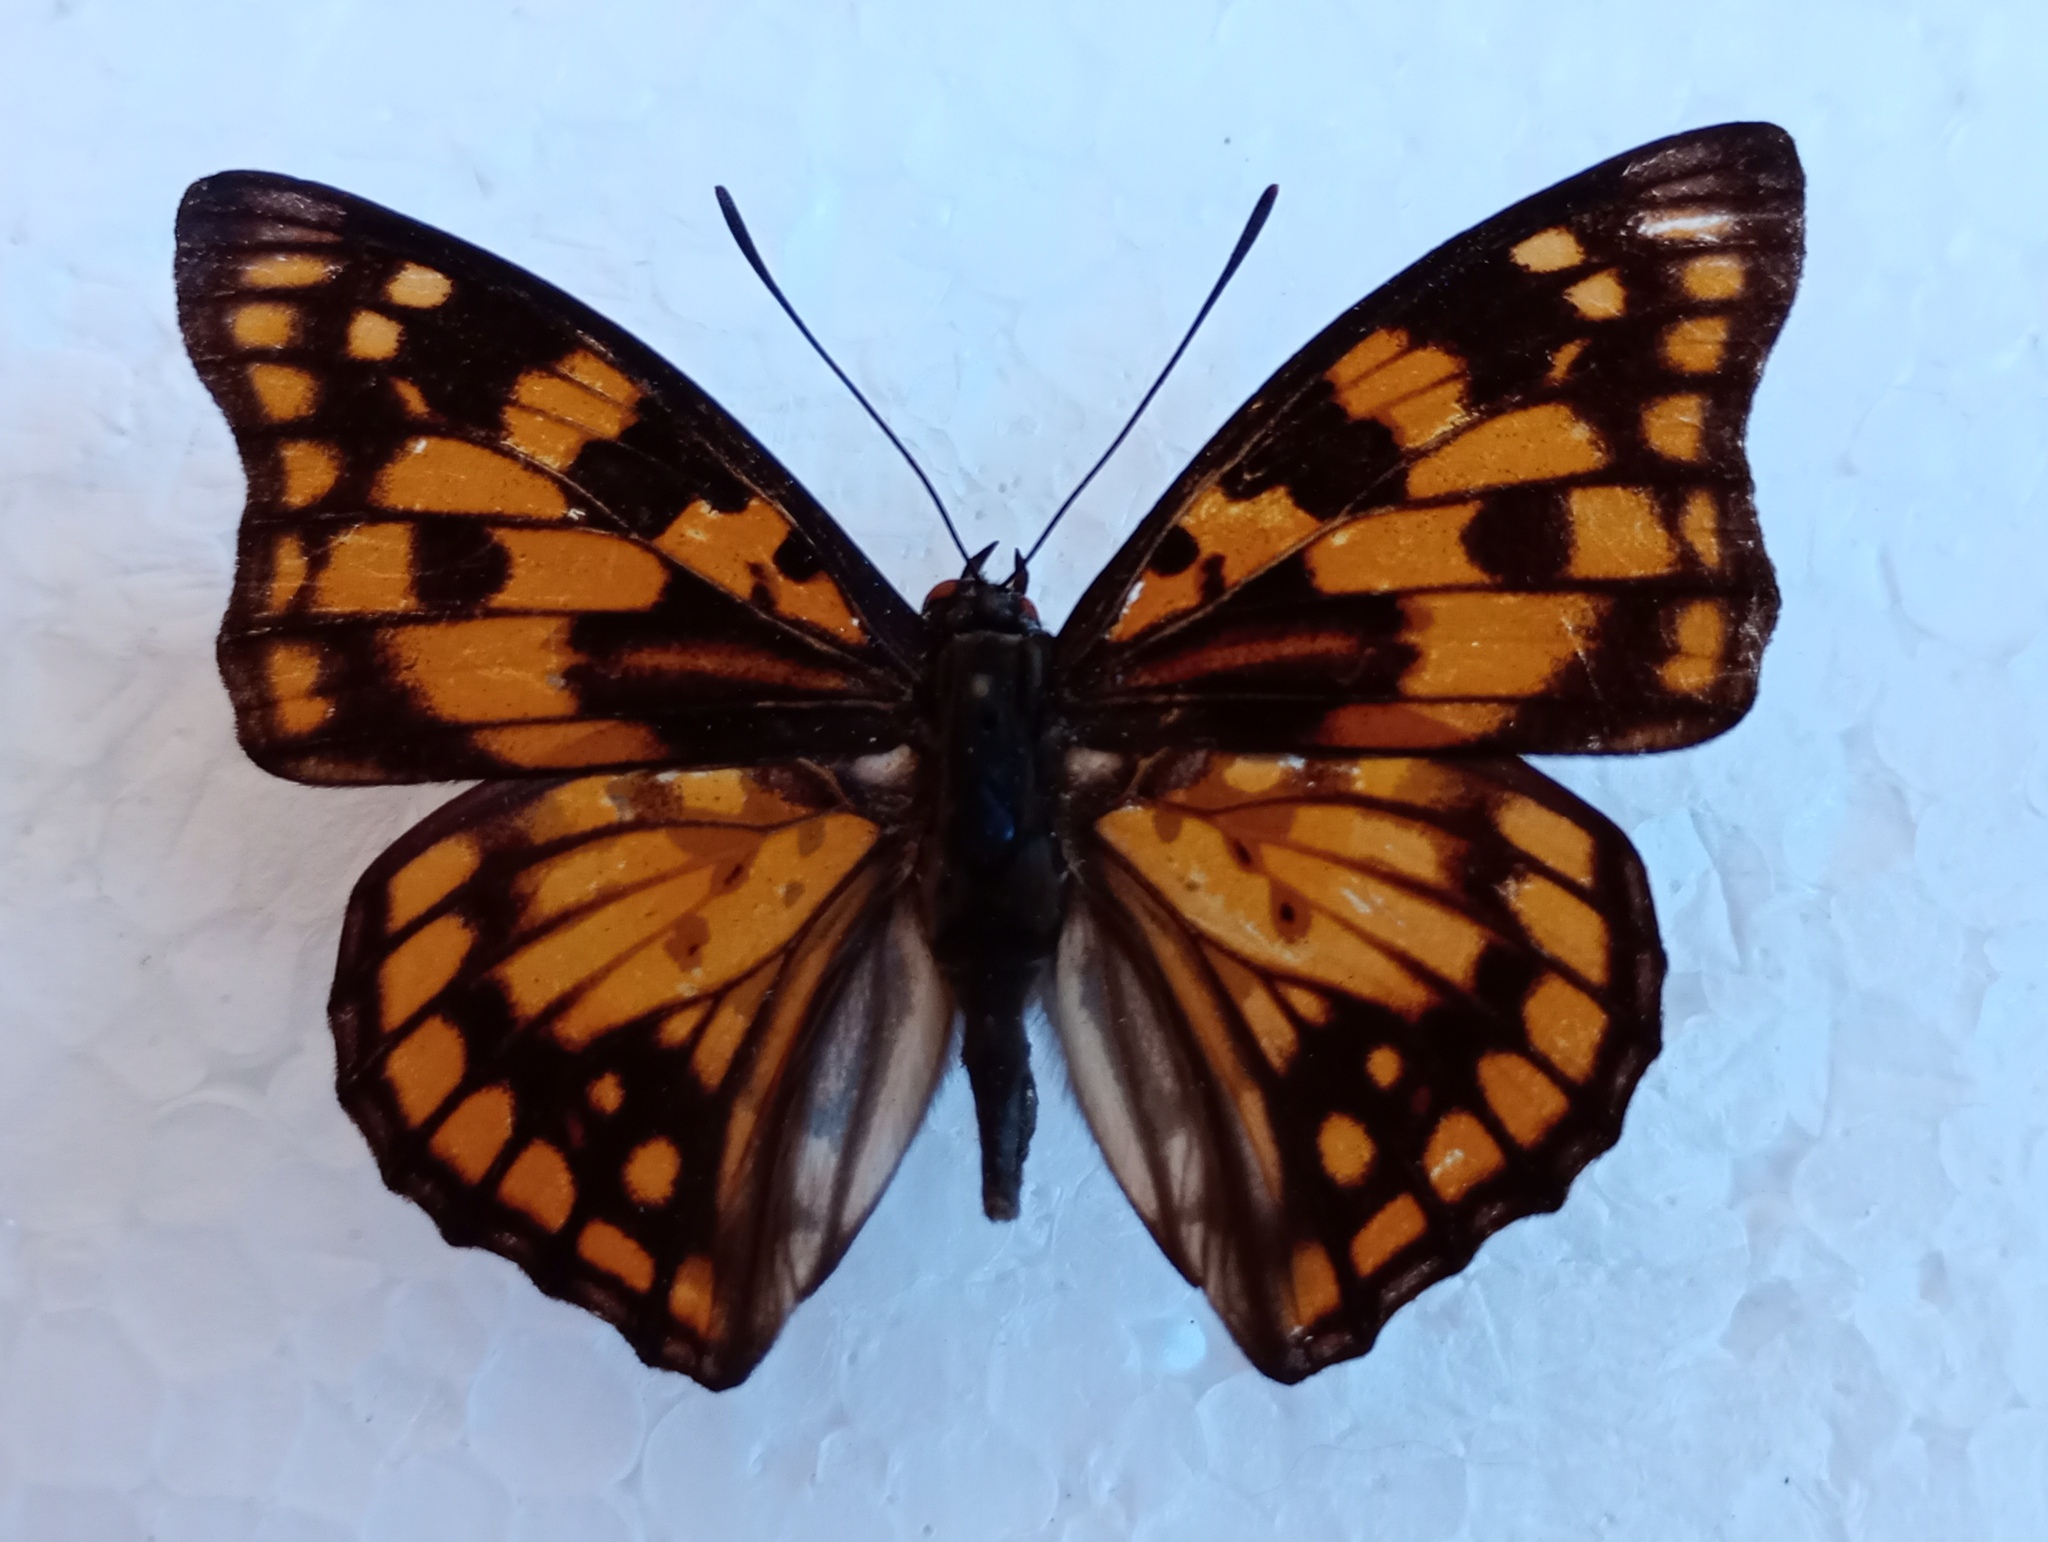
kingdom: Animalia
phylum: Arthropoda
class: Insecta
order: Lepidoptera
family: Nymphalidae
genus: Sephisa
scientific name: Sephisa dichroa
